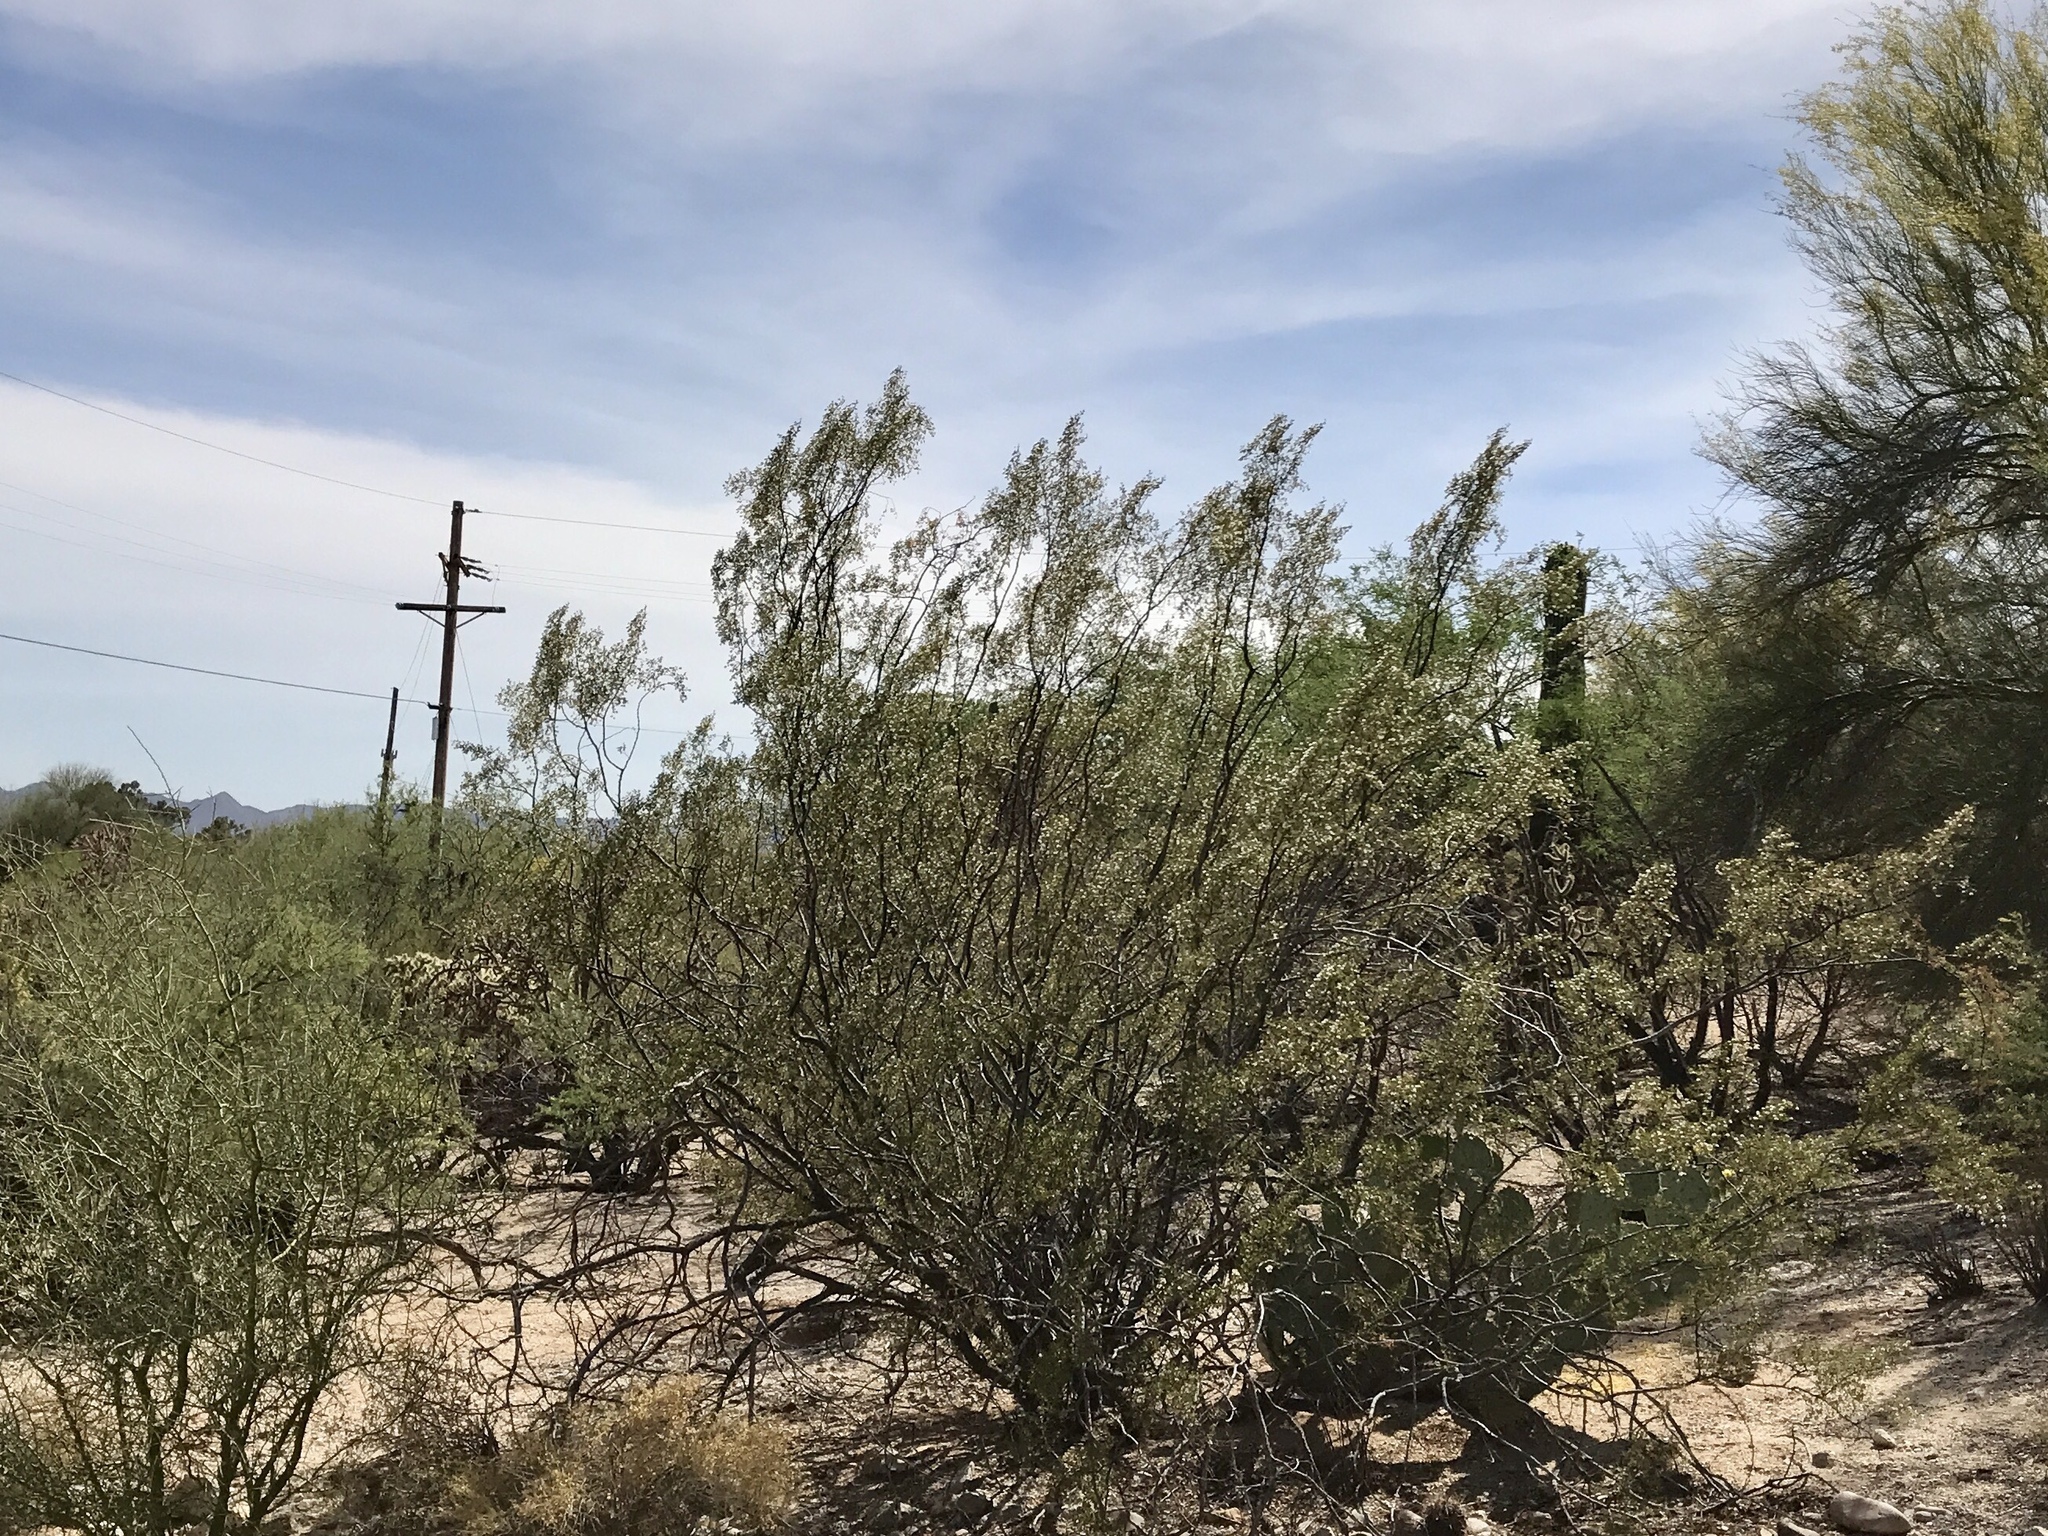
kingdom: Plantae
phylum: Tracheophyta
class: Magnoliopsida
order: Zygophyllales
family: Zygophyllaceae
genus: Larrea
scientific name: Larrea tridentata
